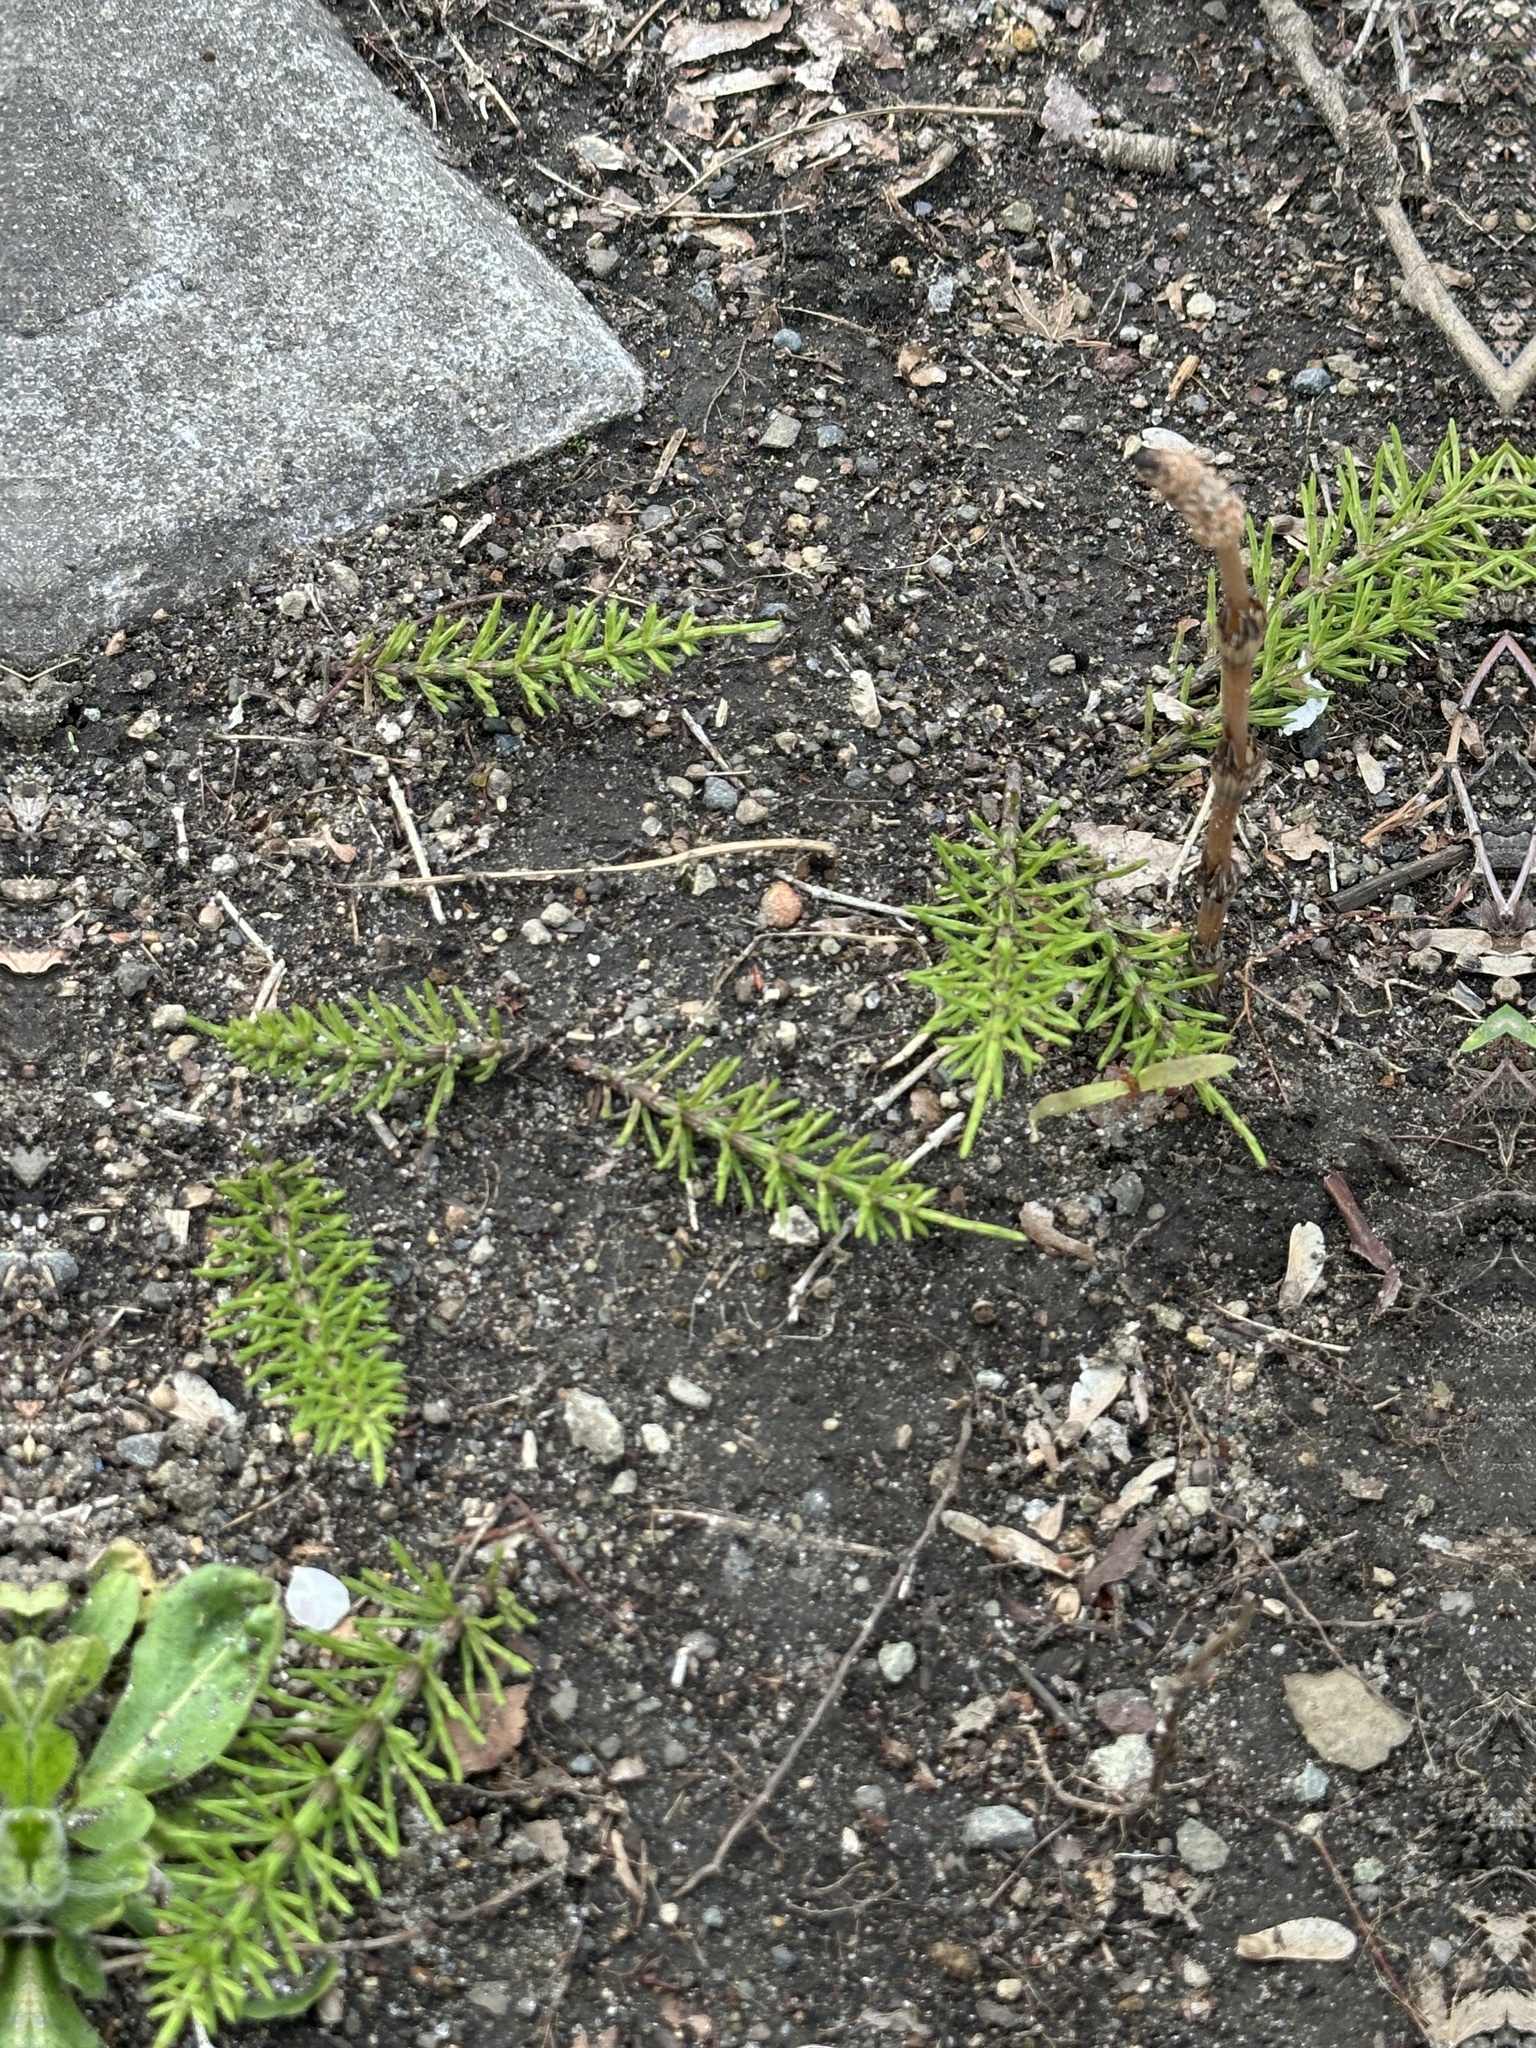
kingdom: Plantae
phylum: Tracheophyta
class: Polypodiopsida
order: Equisetales
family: Equisetaceae
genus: Equisetum
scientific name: Equisetum arvense
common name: Field horsetail
